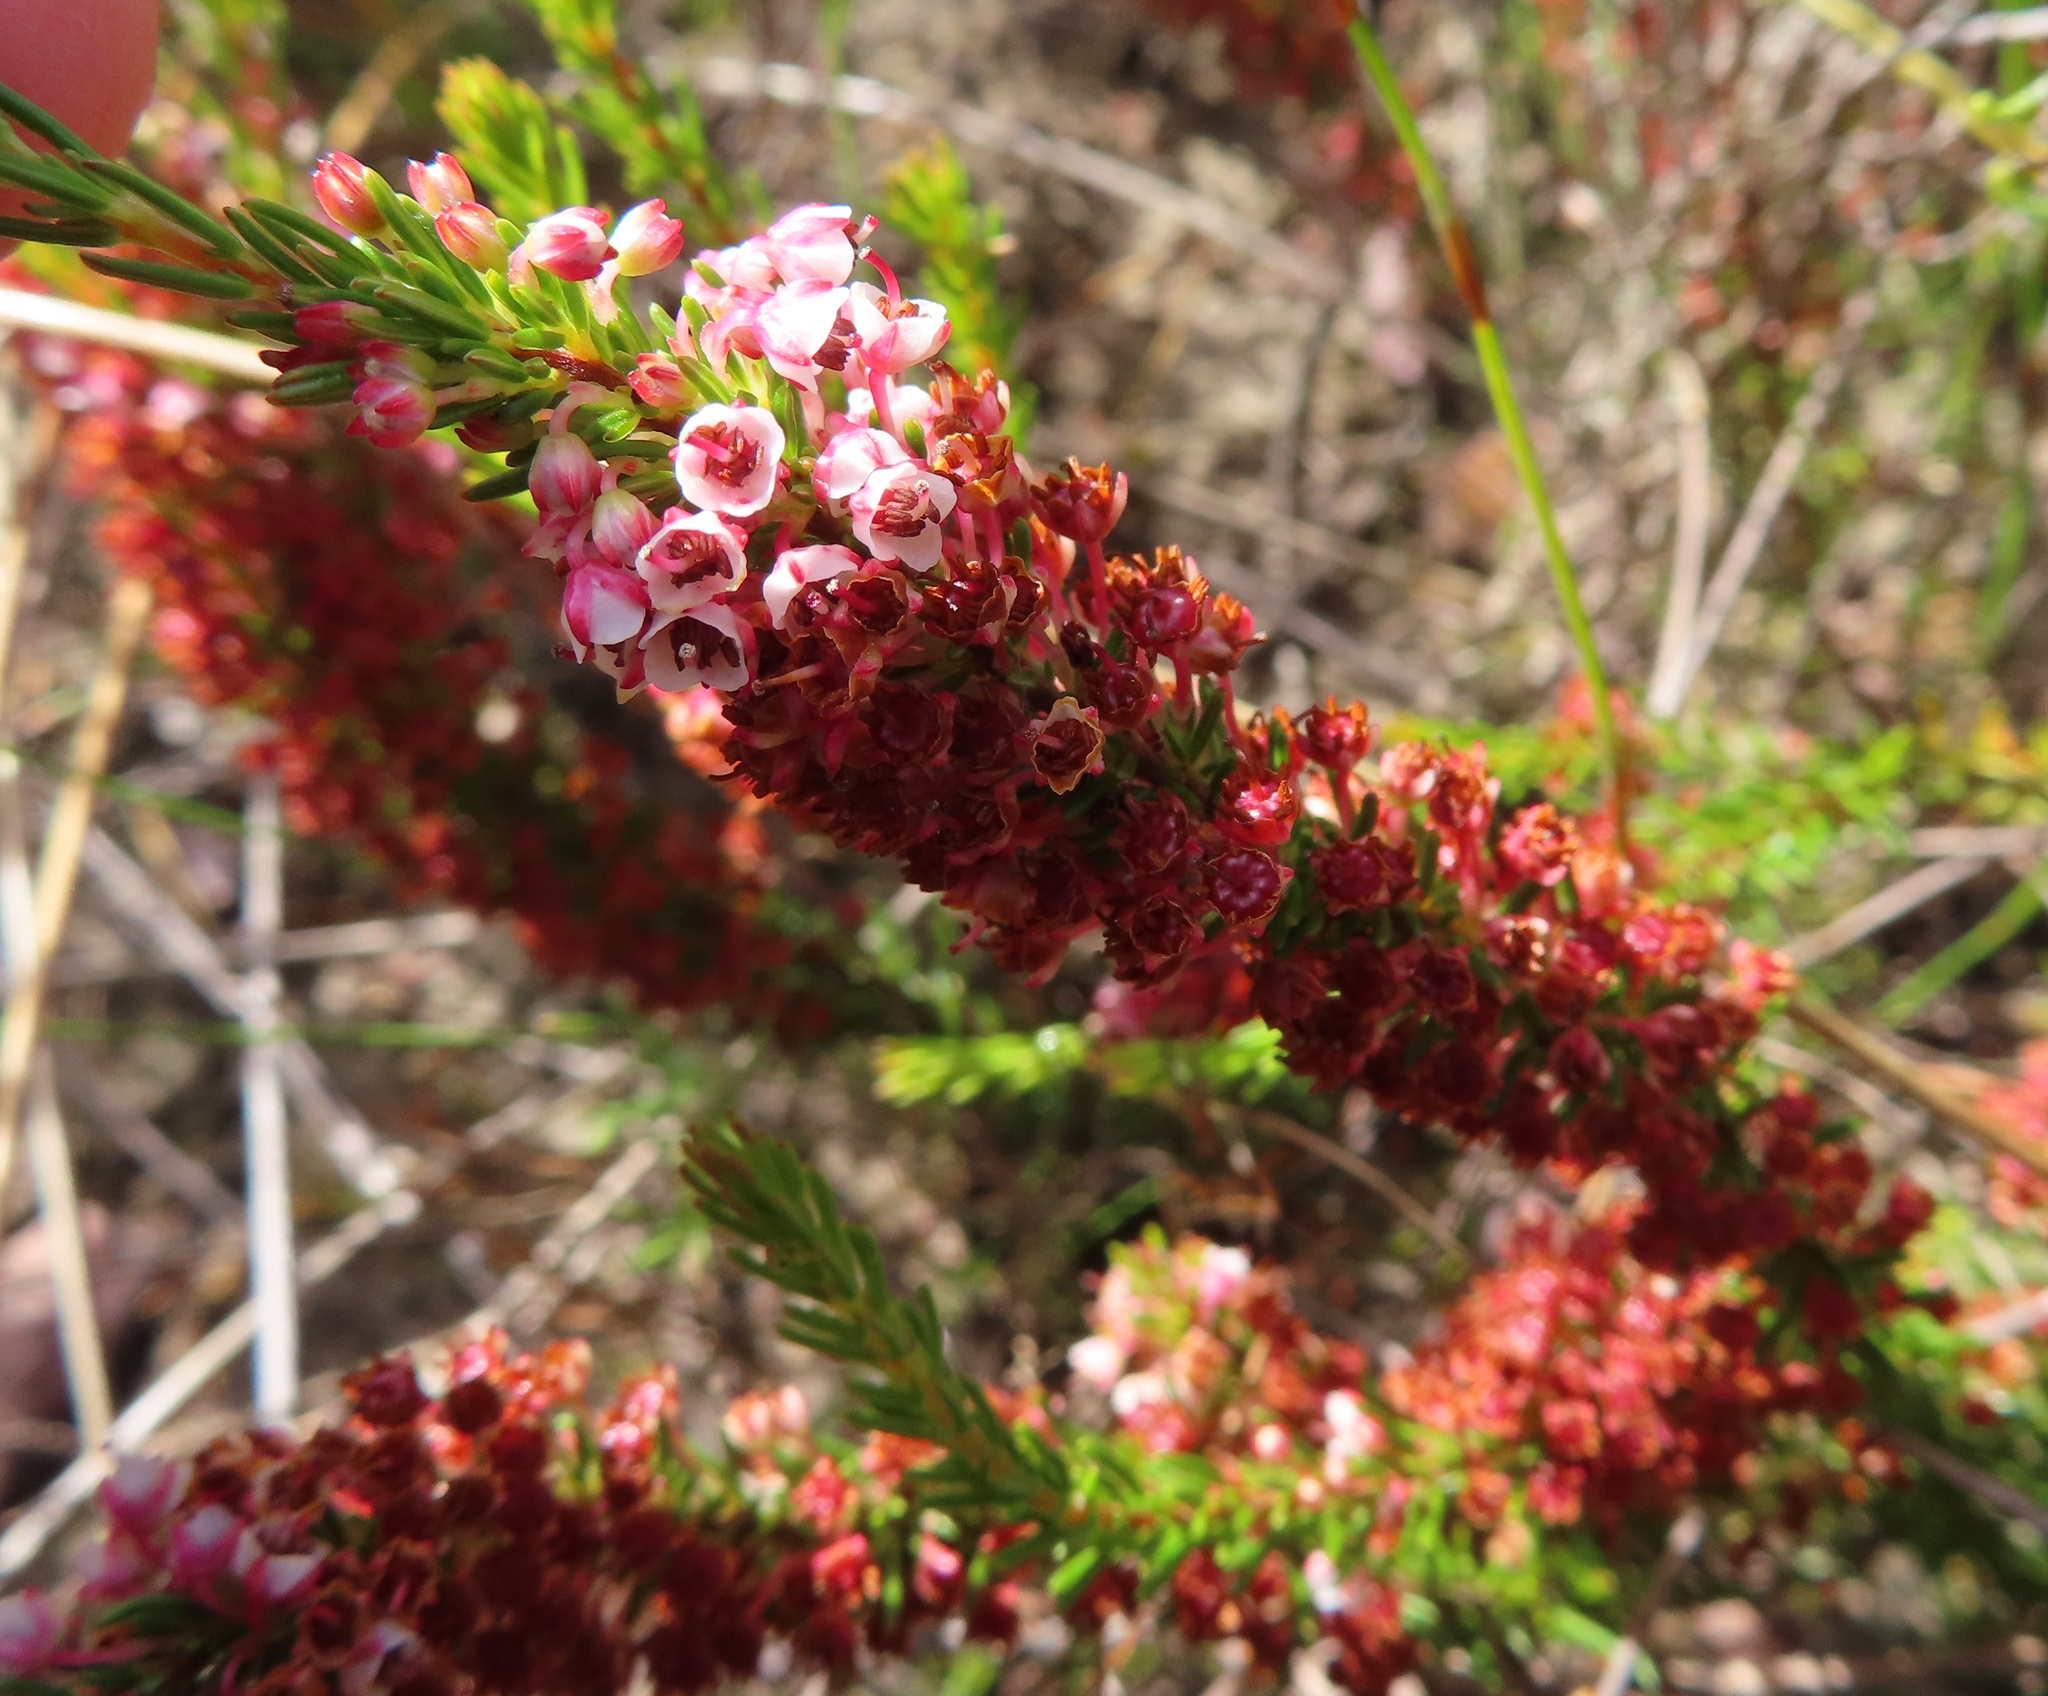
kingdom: Plantae
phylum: Tracheophyta
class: Magnoliopsida
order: Ericales
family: Ericaceae
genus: Erica
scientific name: Erica rubiginosa
